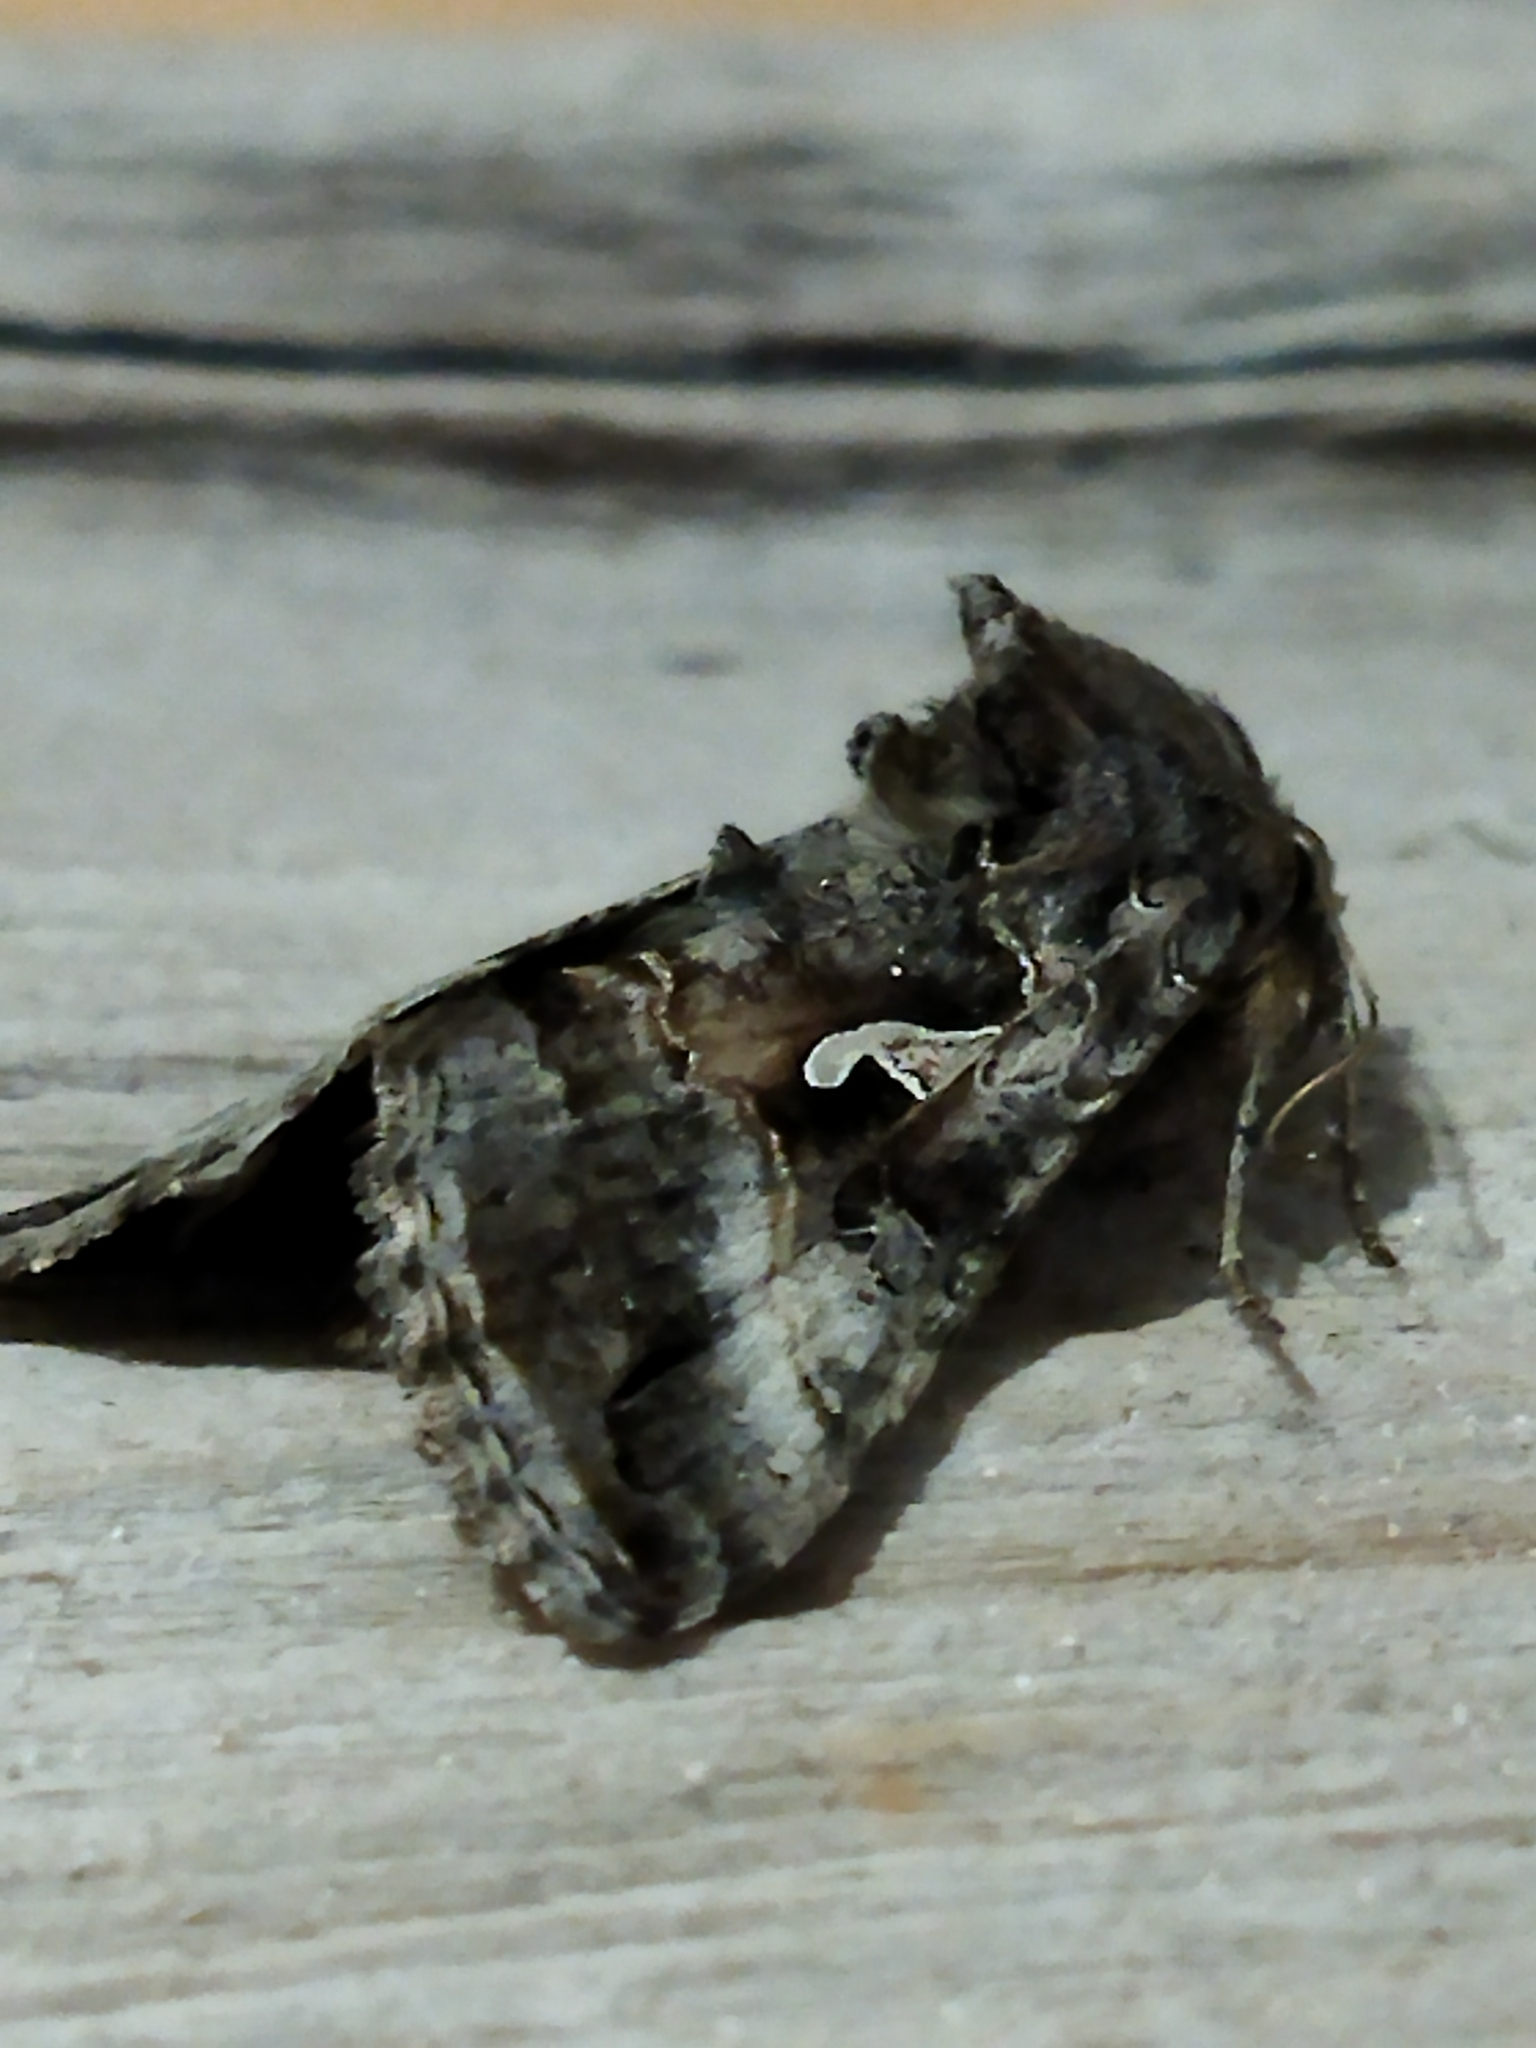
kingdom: Animalia
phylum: Arthropoda
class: Insecta
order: Lepidoptera
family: Noctuidae
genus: Autographa
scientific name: Autographa gamma
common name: Silver y
